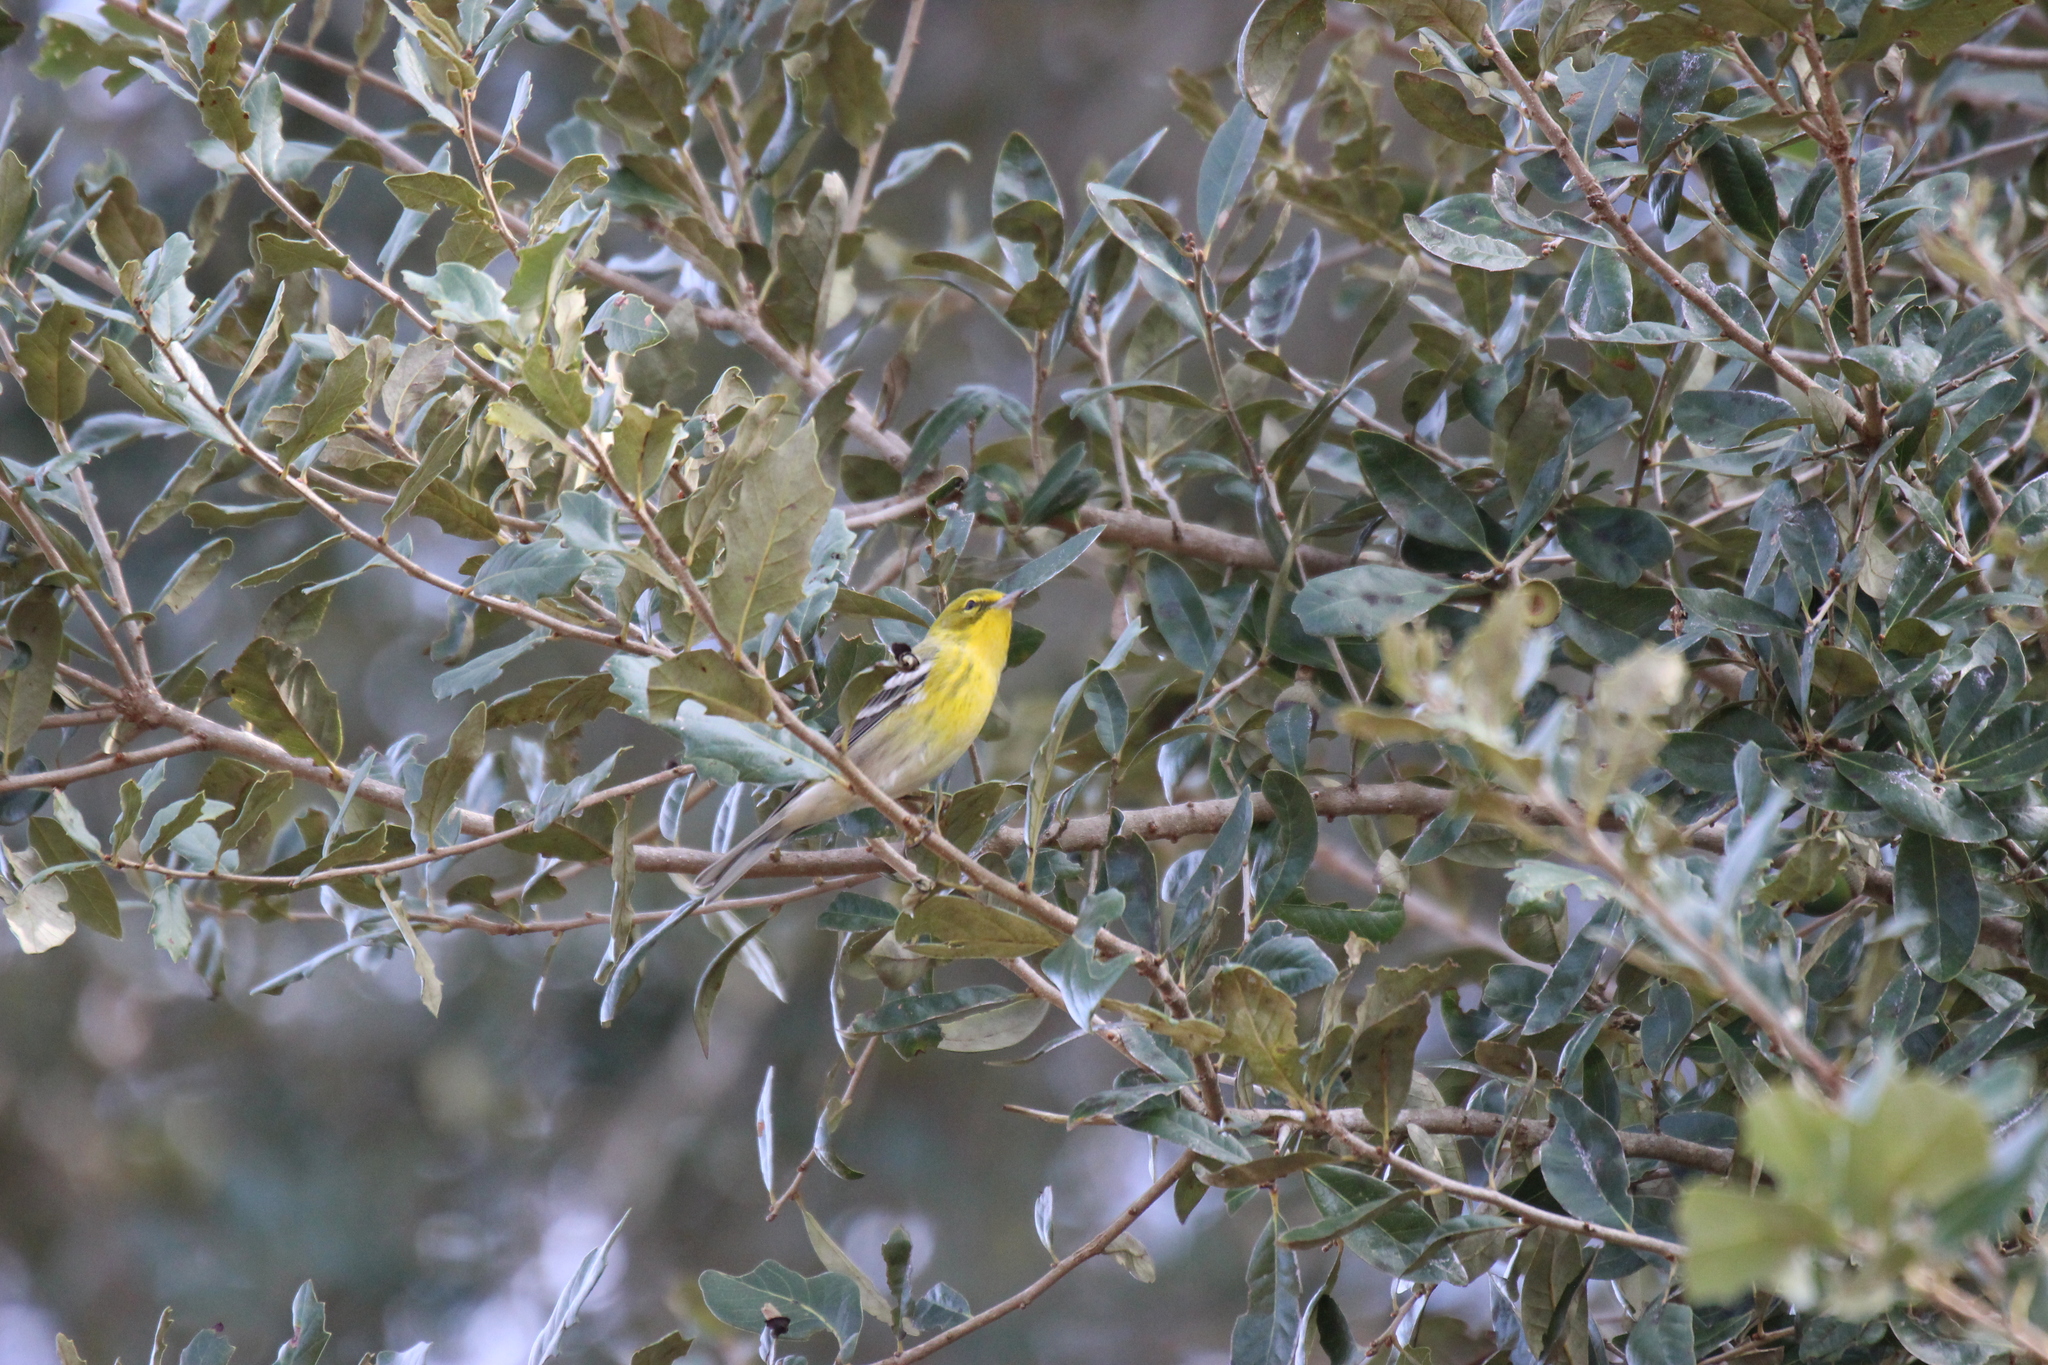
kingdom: Animalia
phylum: Chordata
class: Aves
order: Passeriformes
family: Parulidae
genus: Setophaga
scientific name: Setophaga pinus
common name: Pine warbler
